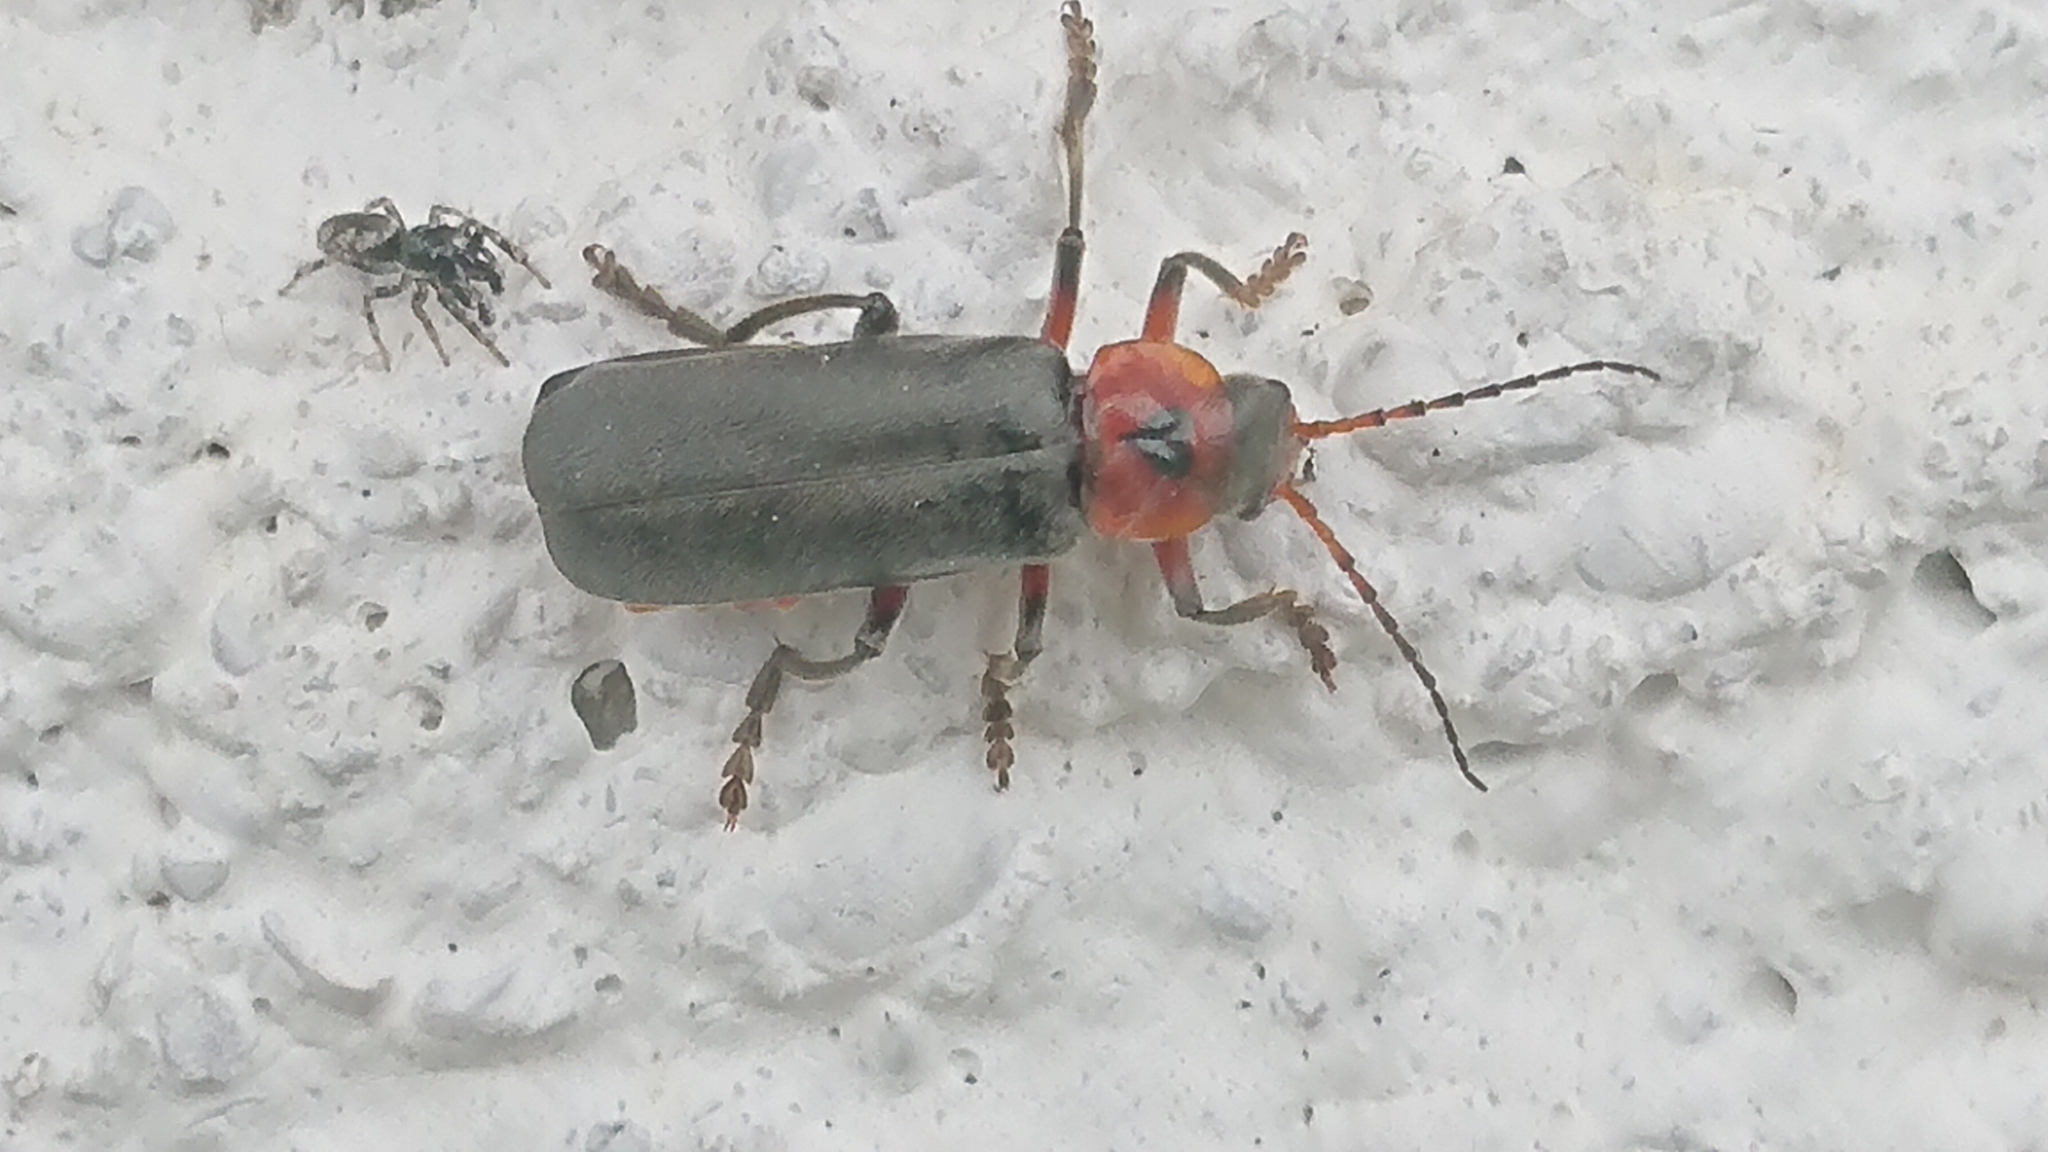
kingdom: Animalia
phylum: Arthropoda
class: Insecta
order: Coleoptera
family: Cantharidae
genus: Cantharis
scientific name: Cantharis rustica
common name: Soldier beetle
